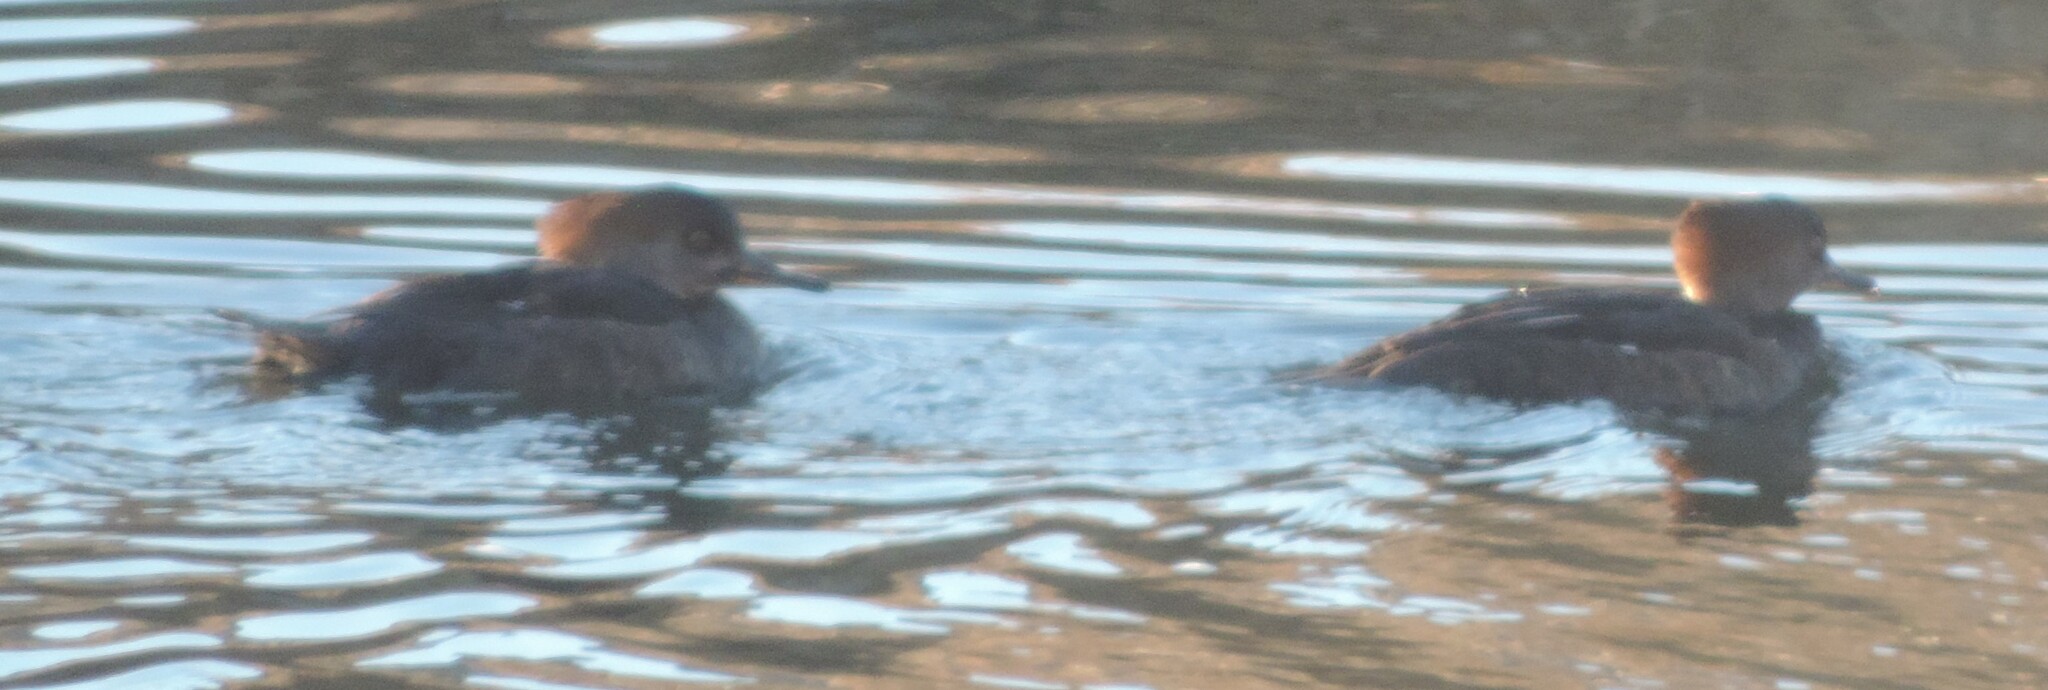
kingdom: Animalia
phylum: Chordata
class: Aves
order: Anseriformes
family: Anatidae
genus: Lophodytes
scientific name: Lophodytes cucullatus
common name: Hooded merganser
